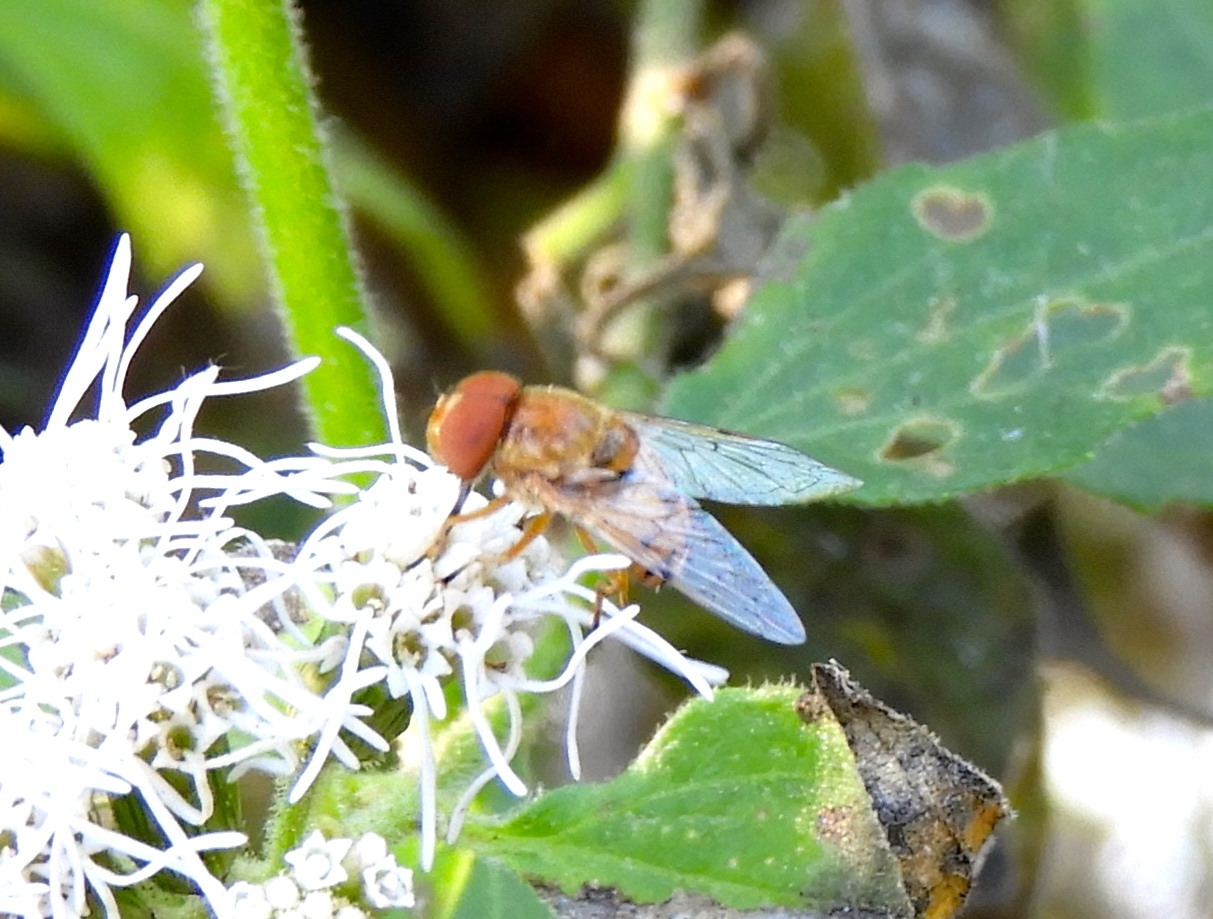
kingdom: Animalia
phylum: Arthropoda
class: Insecta
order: Diptera
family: Syrphidae
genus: Copestylum
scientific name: Copestylum sexmaculatum
